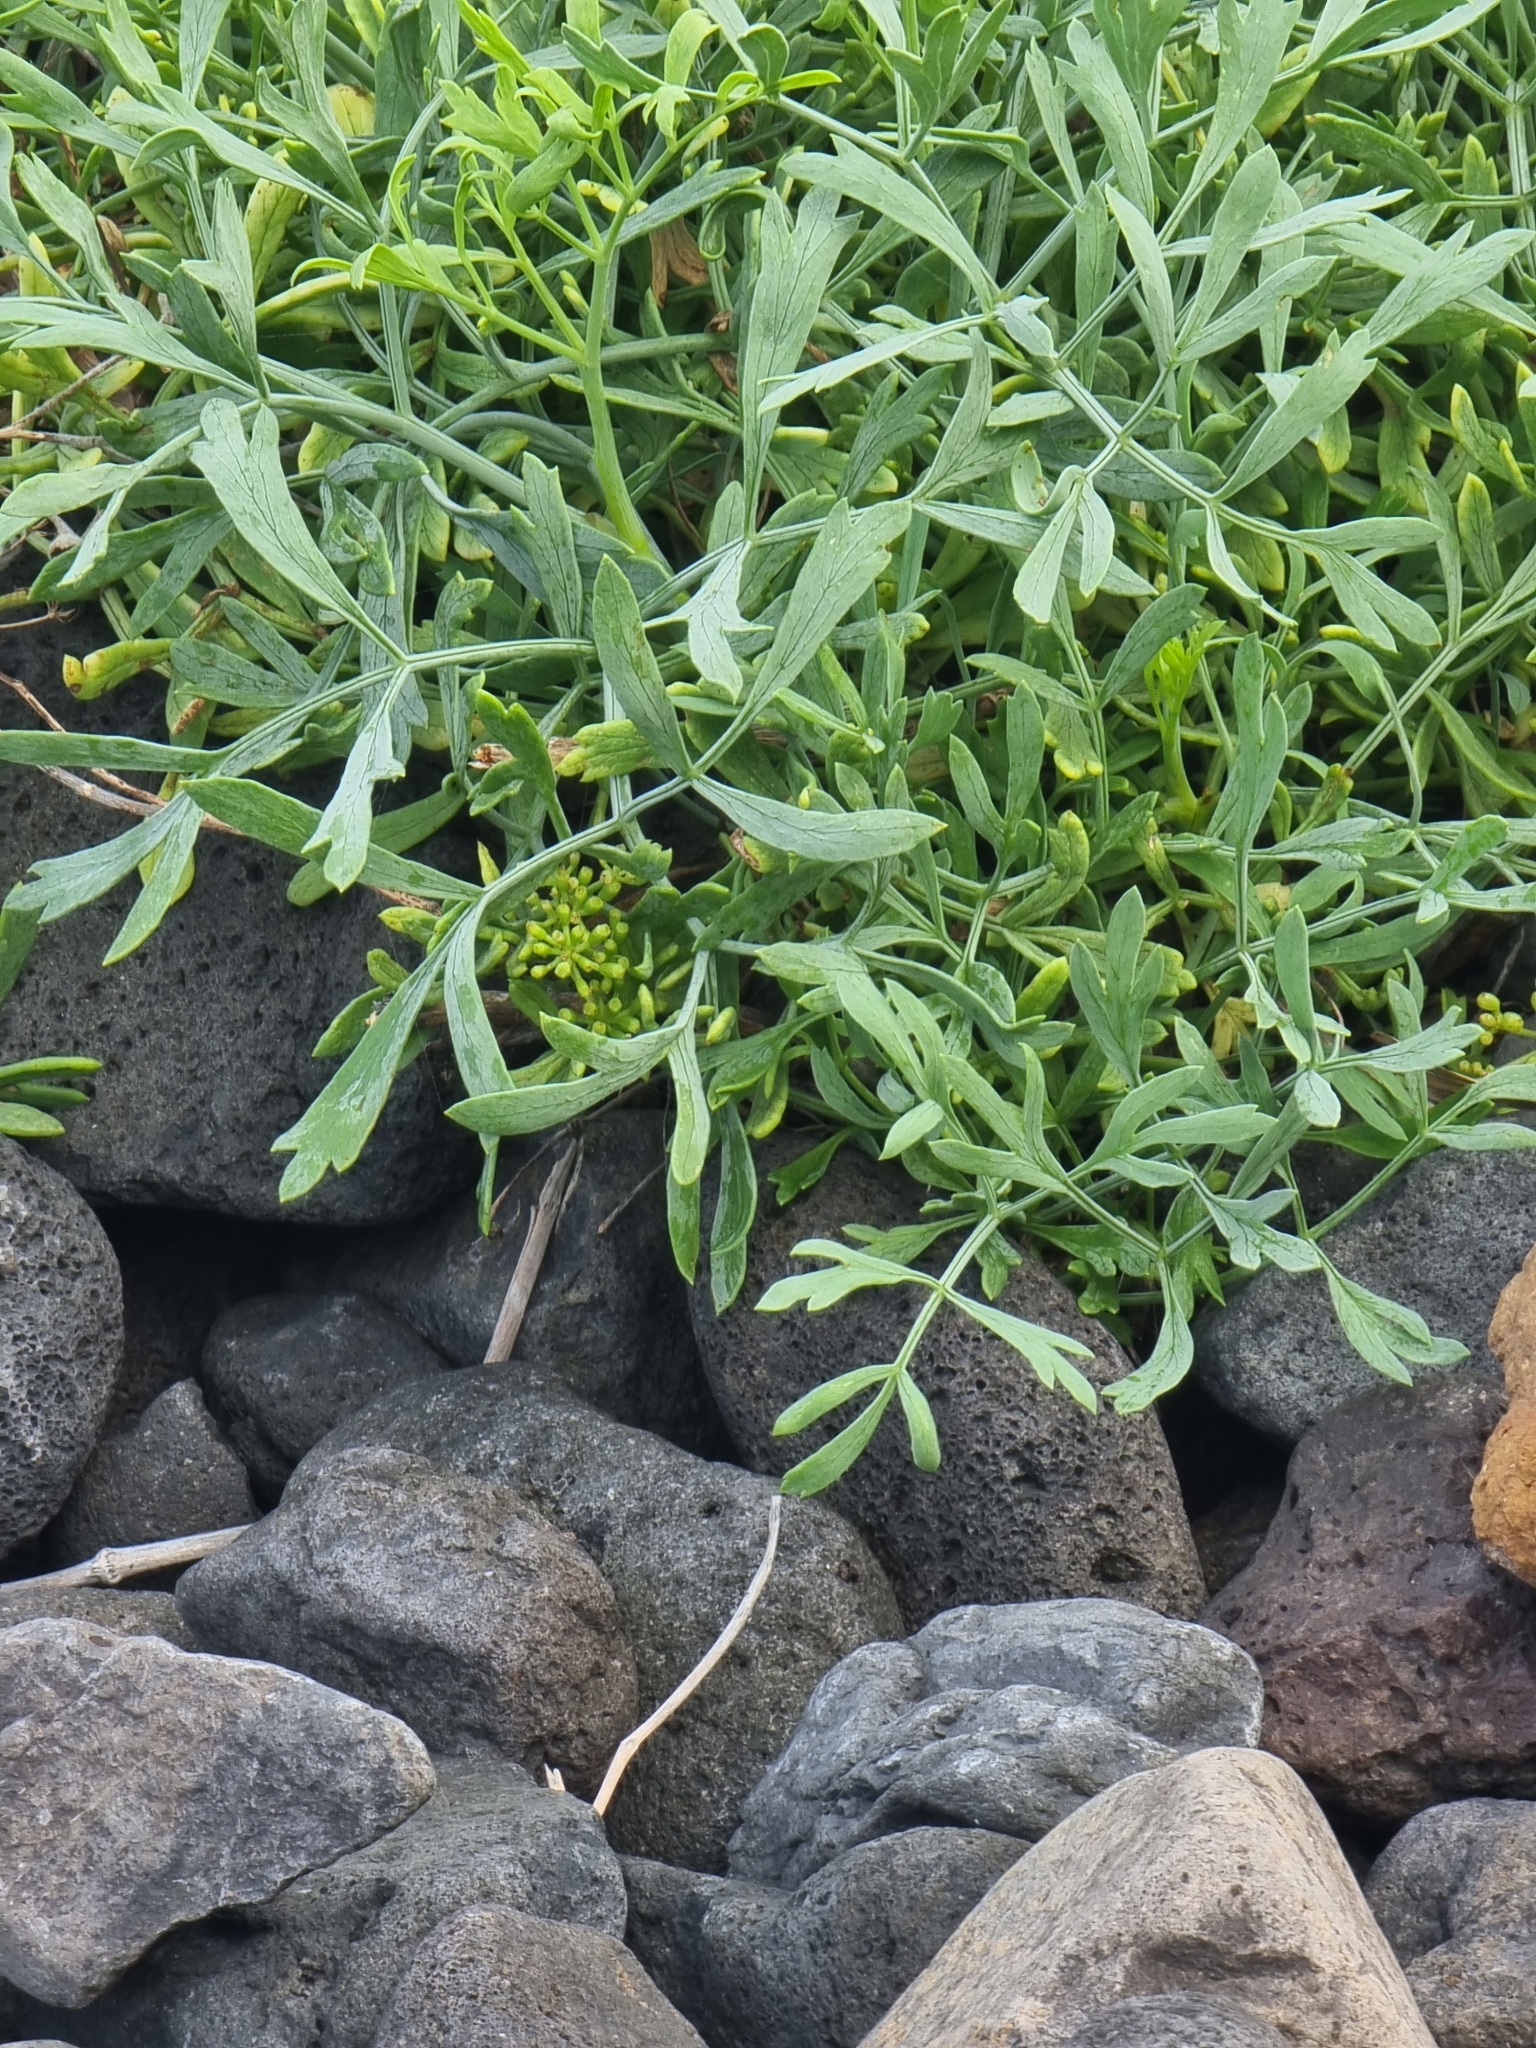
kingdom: Plantae
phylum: Tracheophyta
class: Magnoliopsida
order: Apiales
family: Apiaceae
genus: Crithmum
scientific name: Crithmum maritimum
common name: Rock samphire
